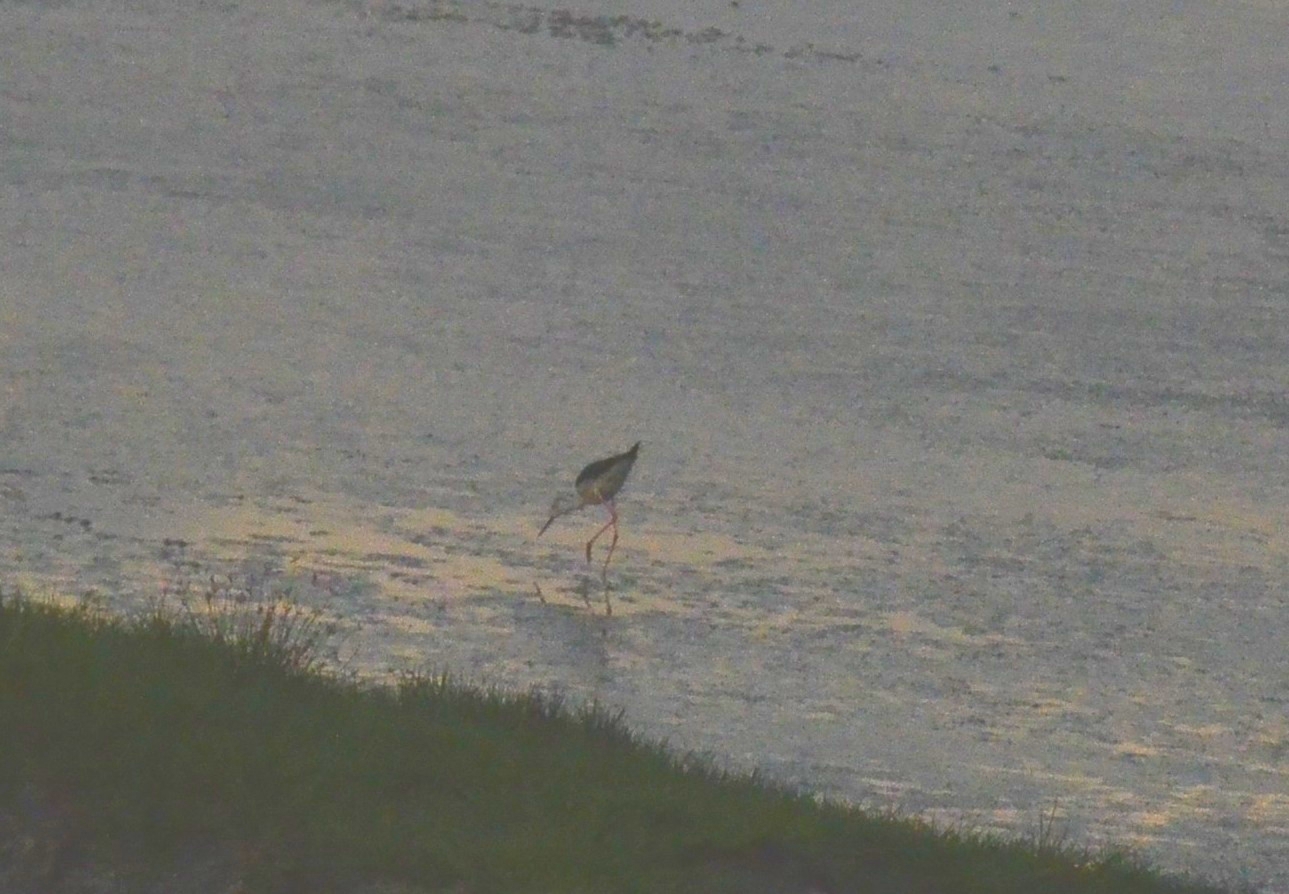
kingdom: Animalia
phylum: Chordata
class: Aves
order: Charadriiformes
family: Recurvirostridae
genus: Himantopus
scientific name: Himantopus himantopus
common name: Black-winged stilt
